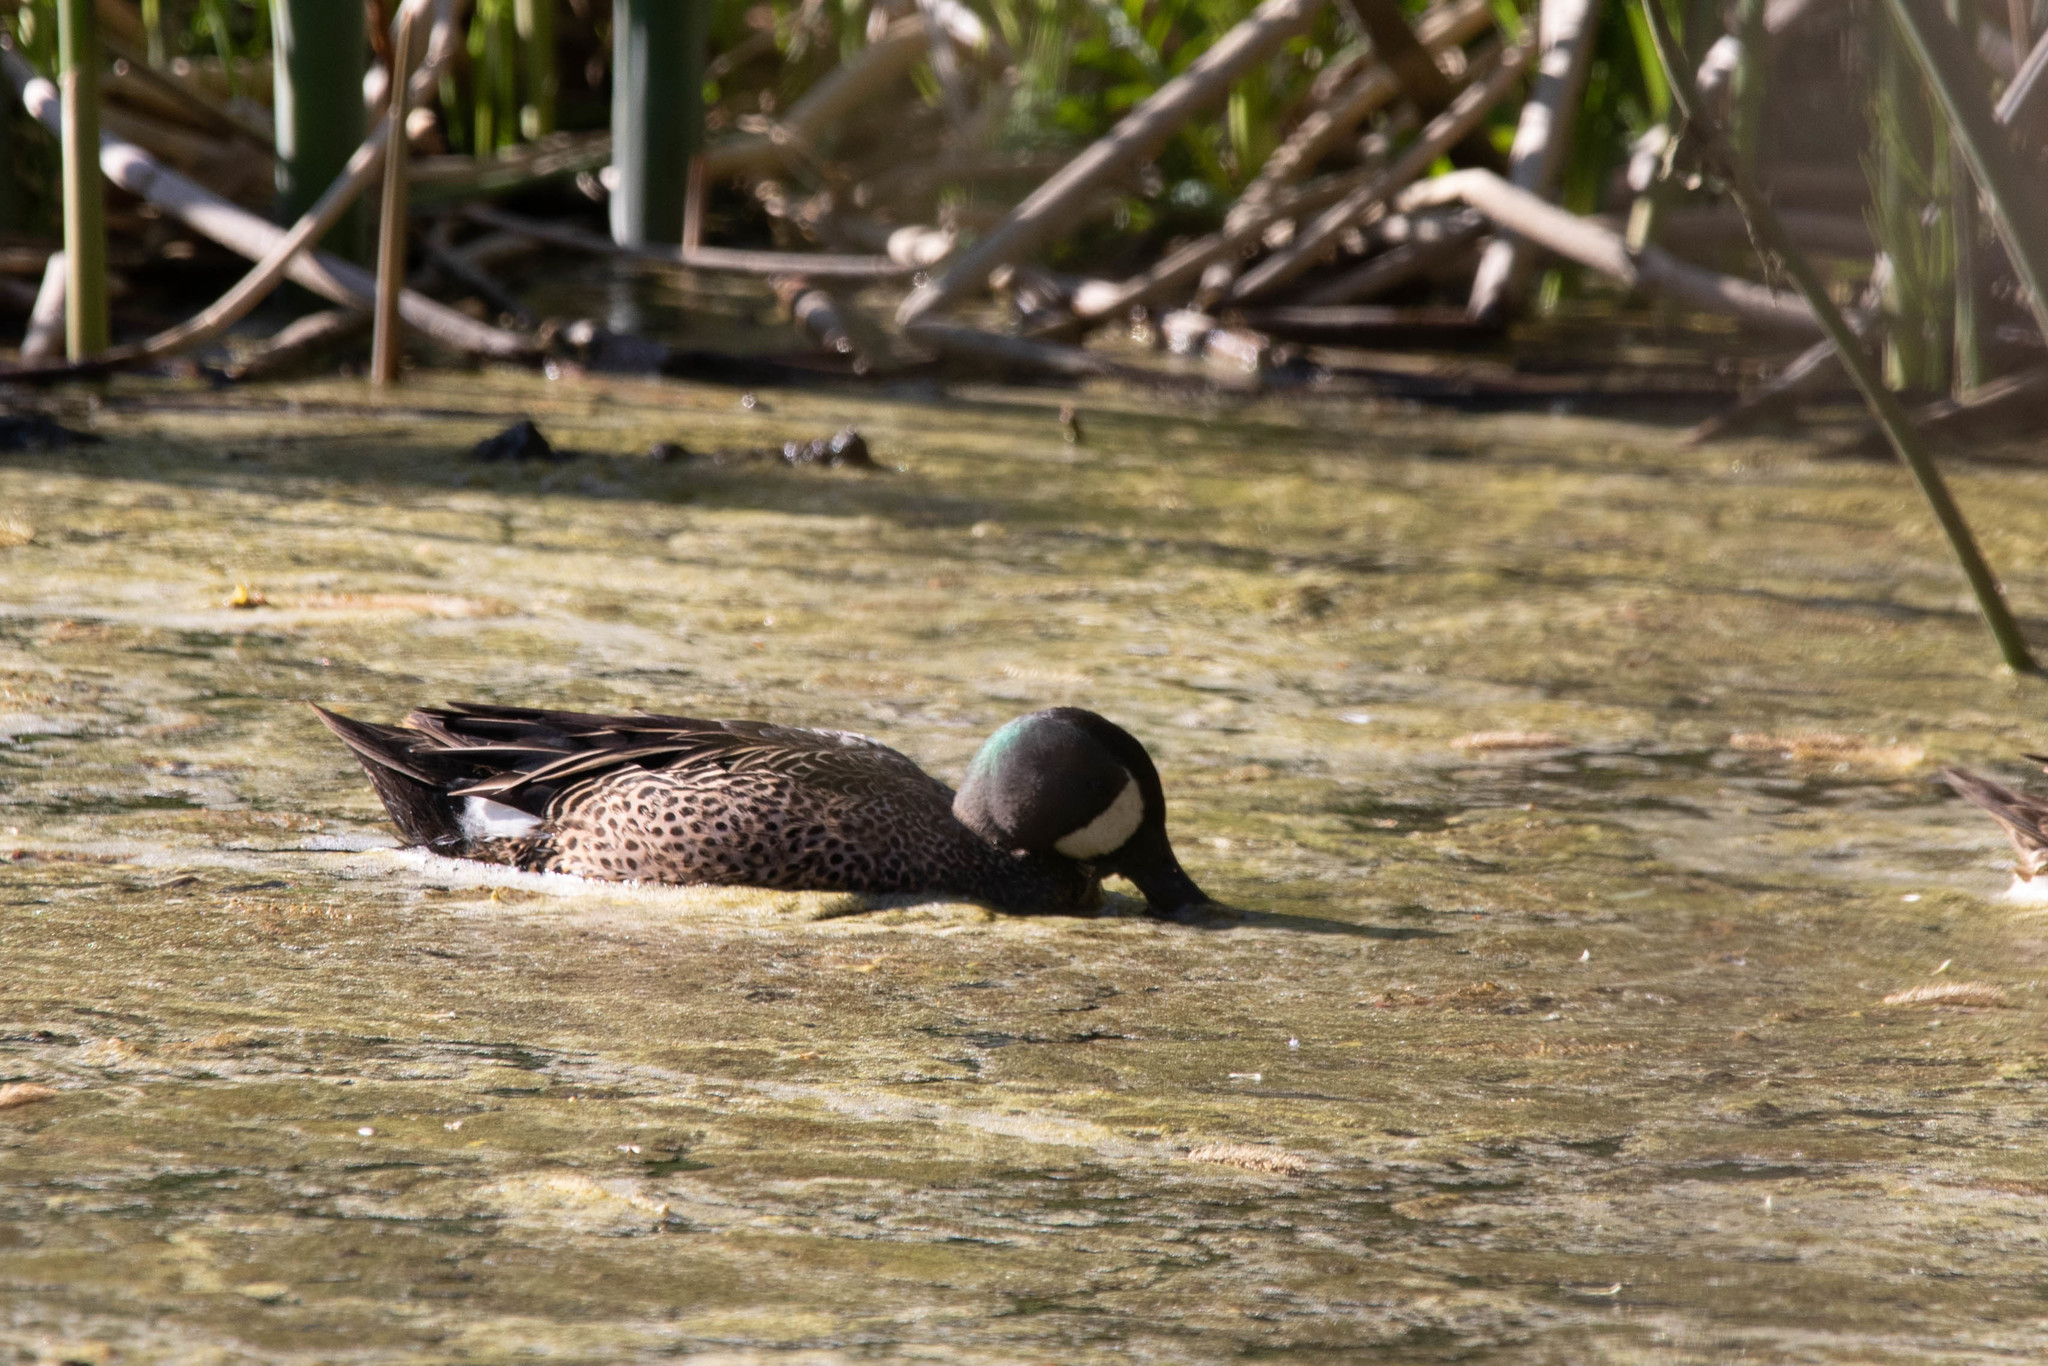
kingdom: Animalia
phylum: Chordata
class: Aves
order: Anseriformes
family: Anatidae
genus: Spatula
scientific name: Spatula discors
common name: Blue-winged teal
